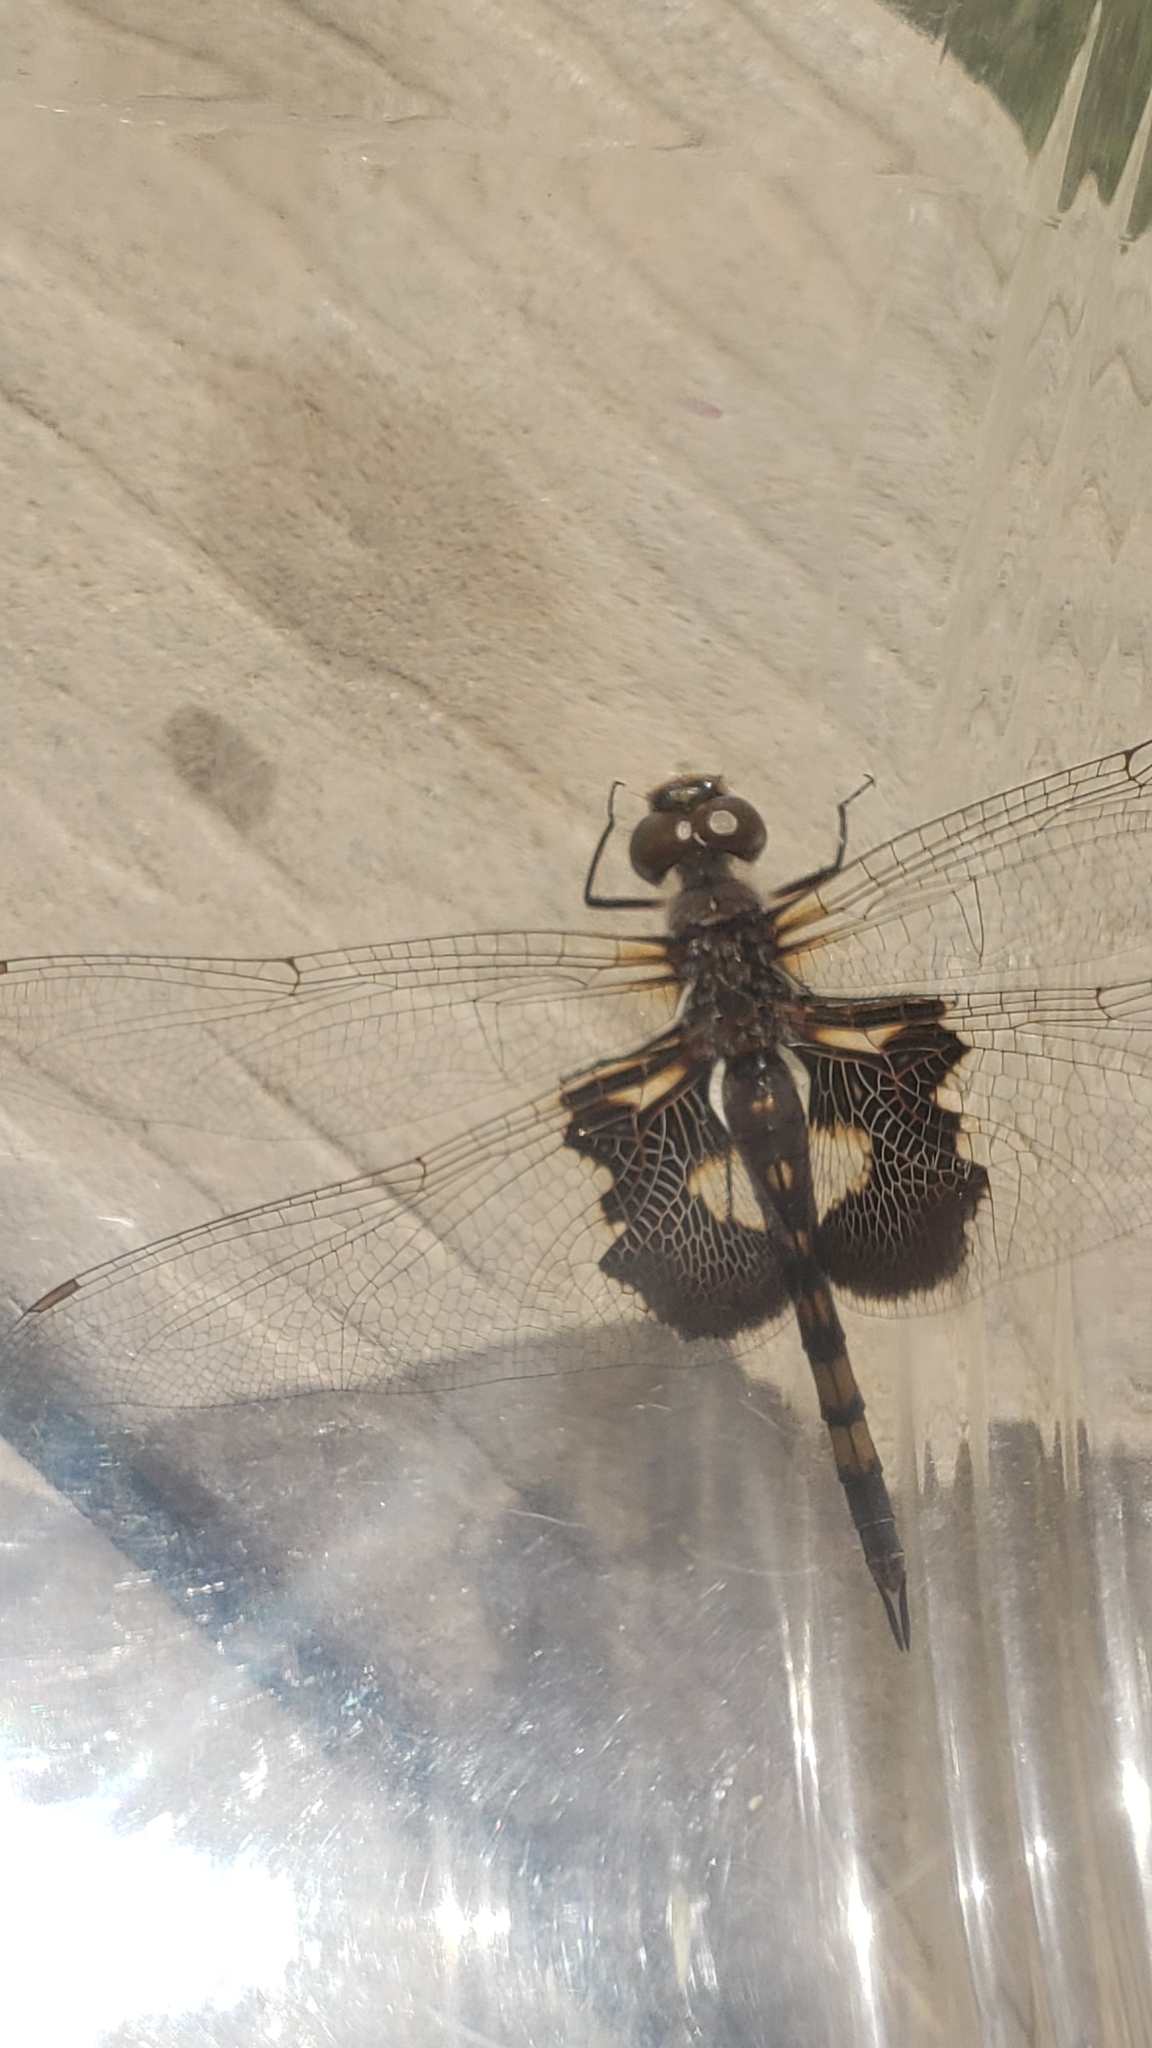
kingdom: Animalia
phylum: Arthropoda
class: Insecta
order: Odonata
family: Libellulidae
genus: Tramea
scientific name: Tramea lacerata
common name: Black saddlebags
